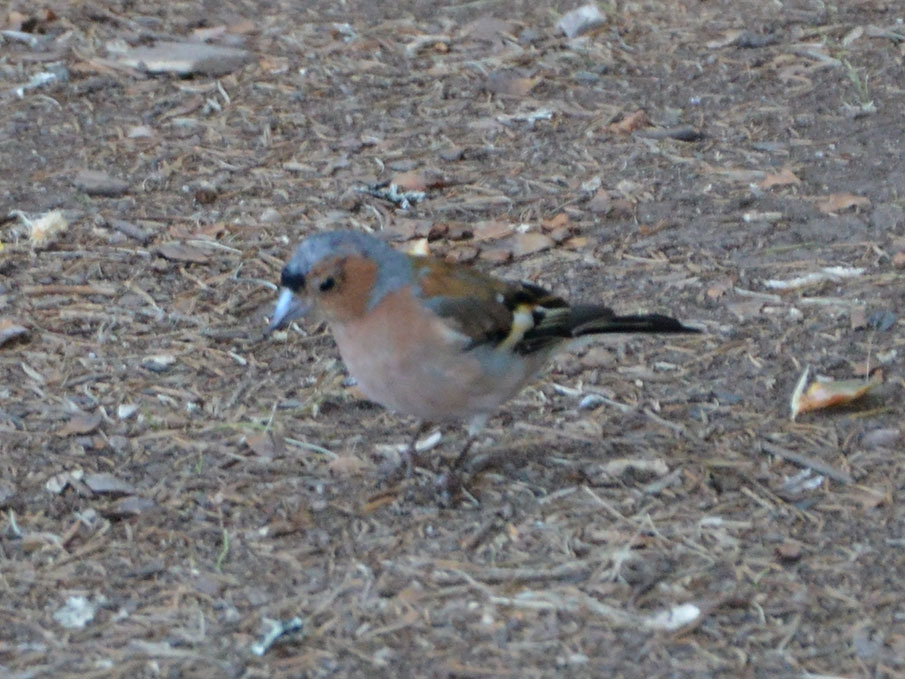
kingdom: Animalia
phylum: Chordata
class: Aves
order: Passeriformes
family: Fringillidae
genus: Fringilla
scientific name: Fringilla coelebs
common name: Common chaffinch
